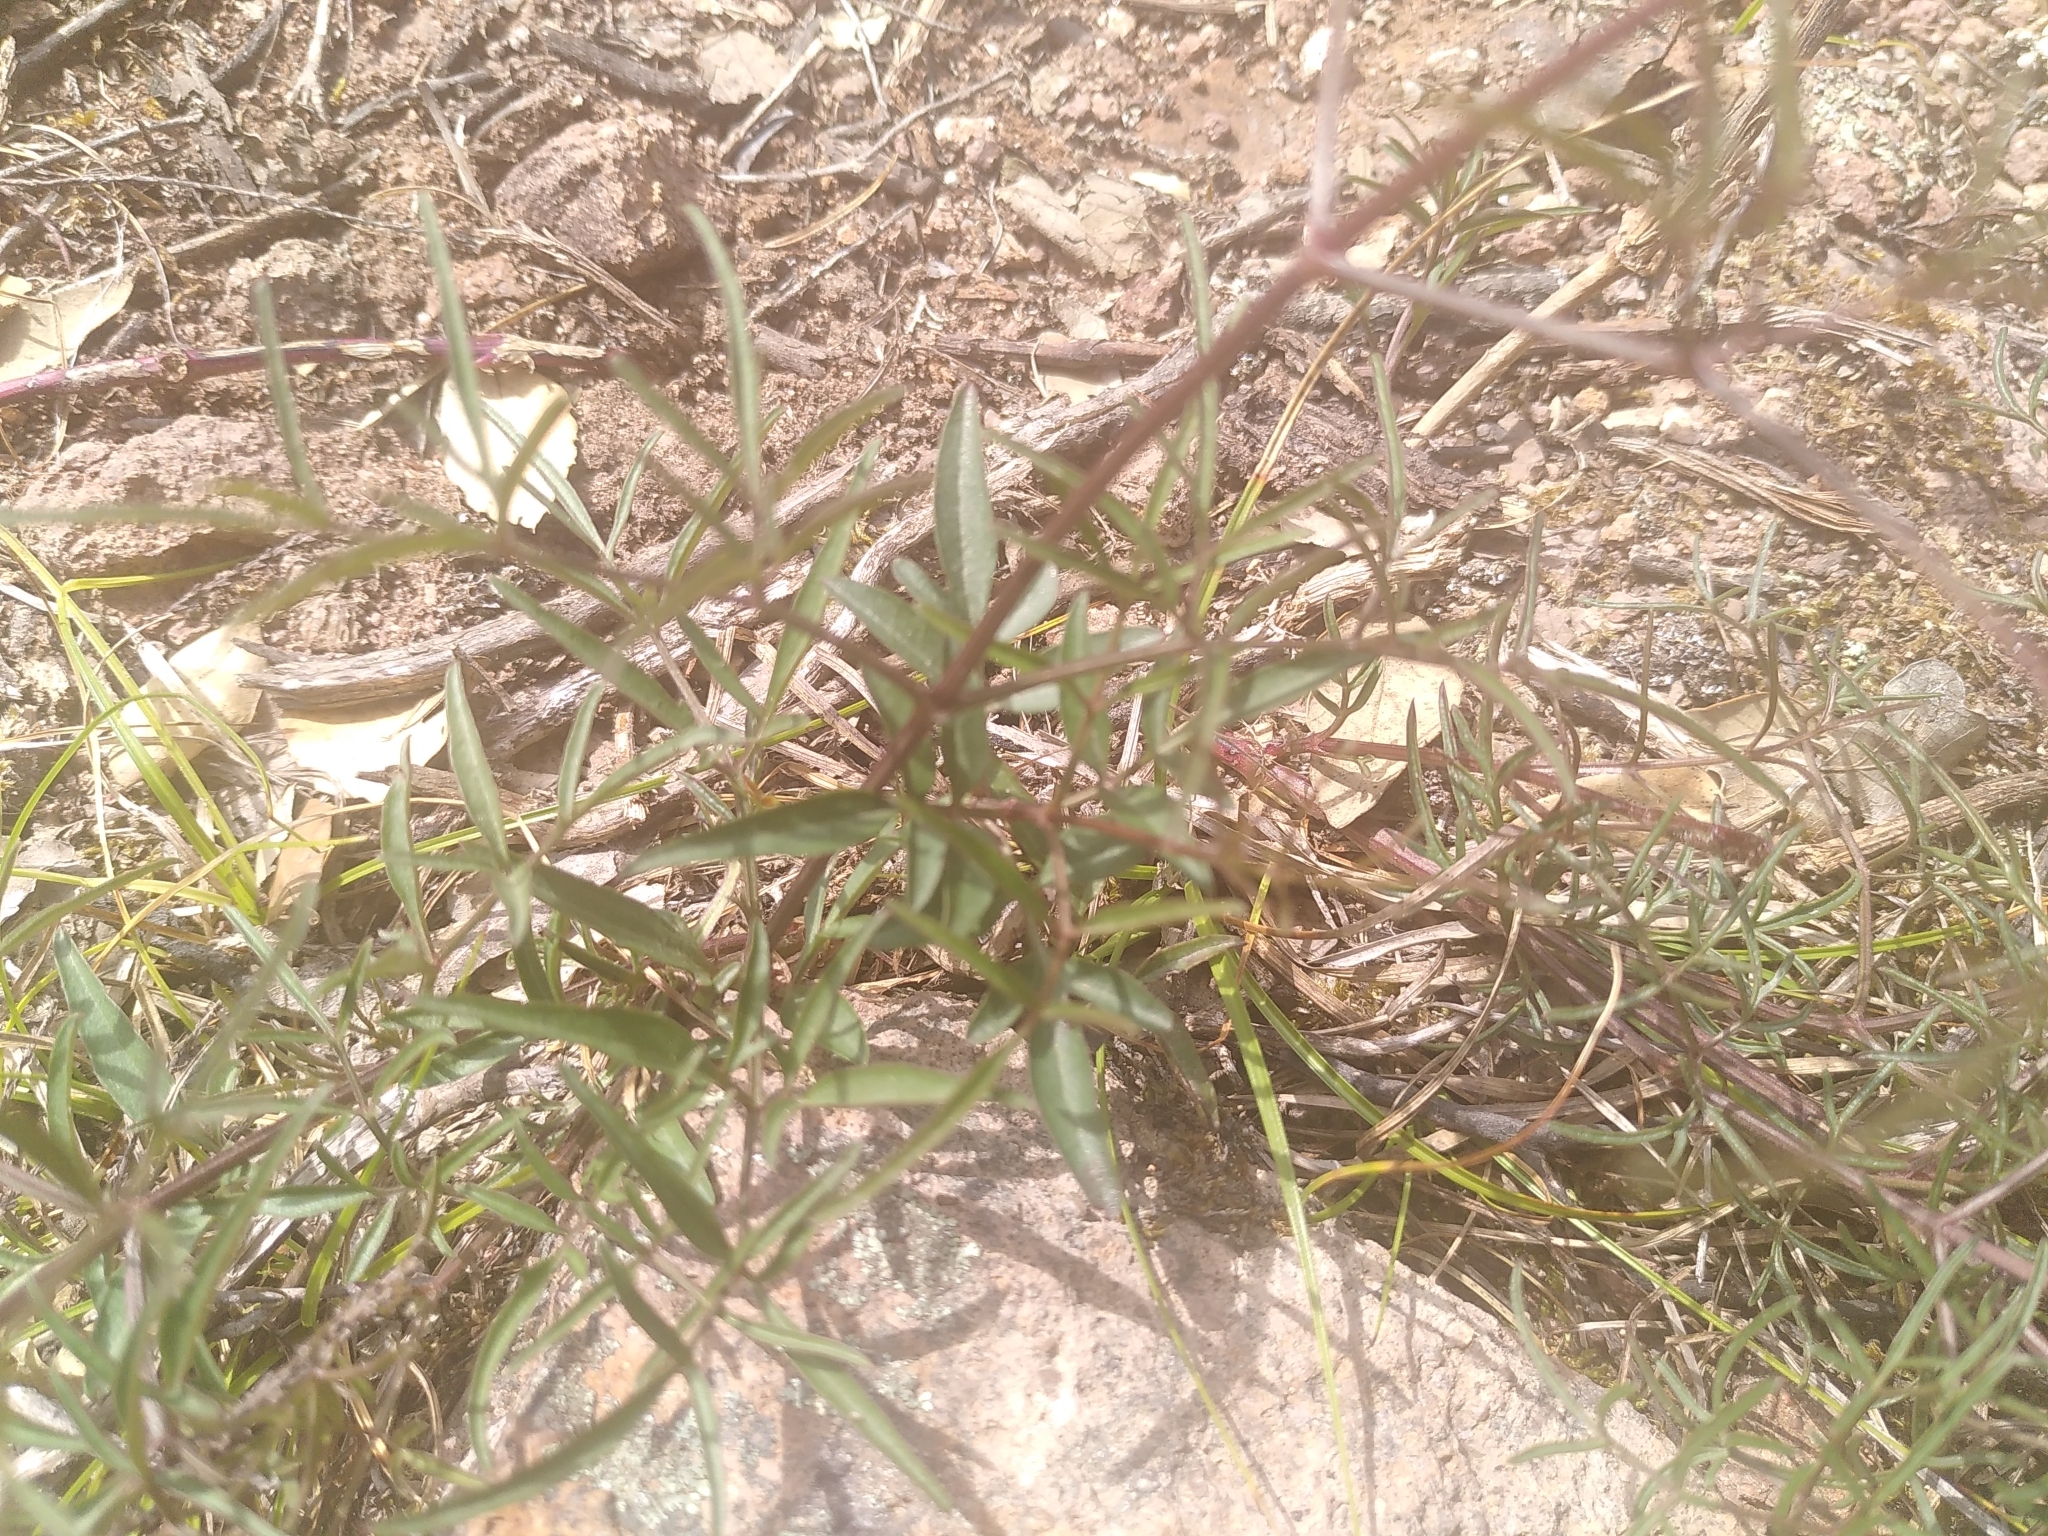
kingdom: Plantae
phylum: Tracheophyta
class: Magnoliopsida
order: Ranunculales
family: Ranunculaceae
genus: Clematis
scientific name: Clematis flammula
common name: Virgin's-bower
